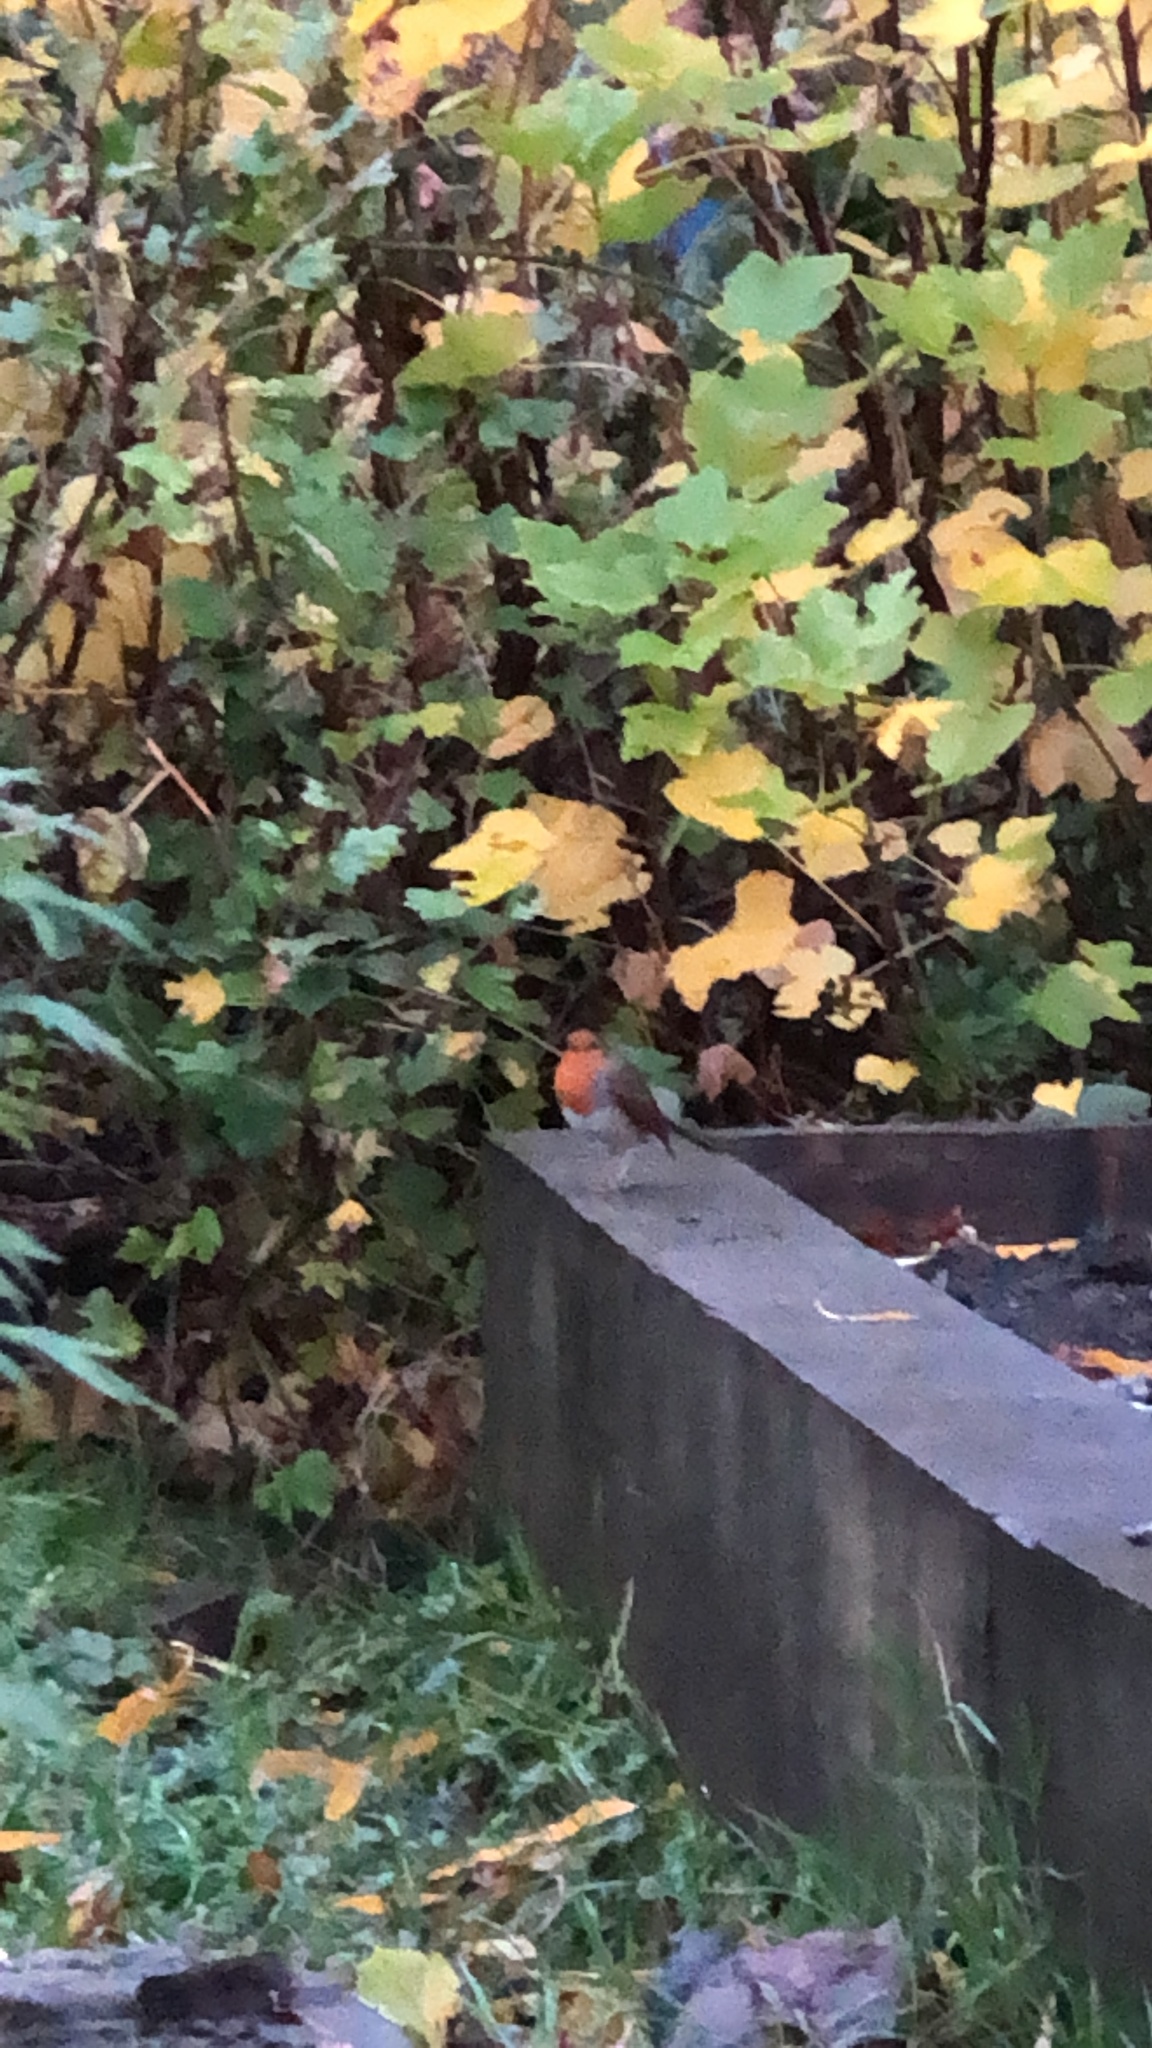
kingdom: Animalia
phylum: Chordata
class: Aves
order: Passeriformes
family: Muscicapidae
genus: Erithacus
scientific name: Erithacus rubecula
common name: European robin
